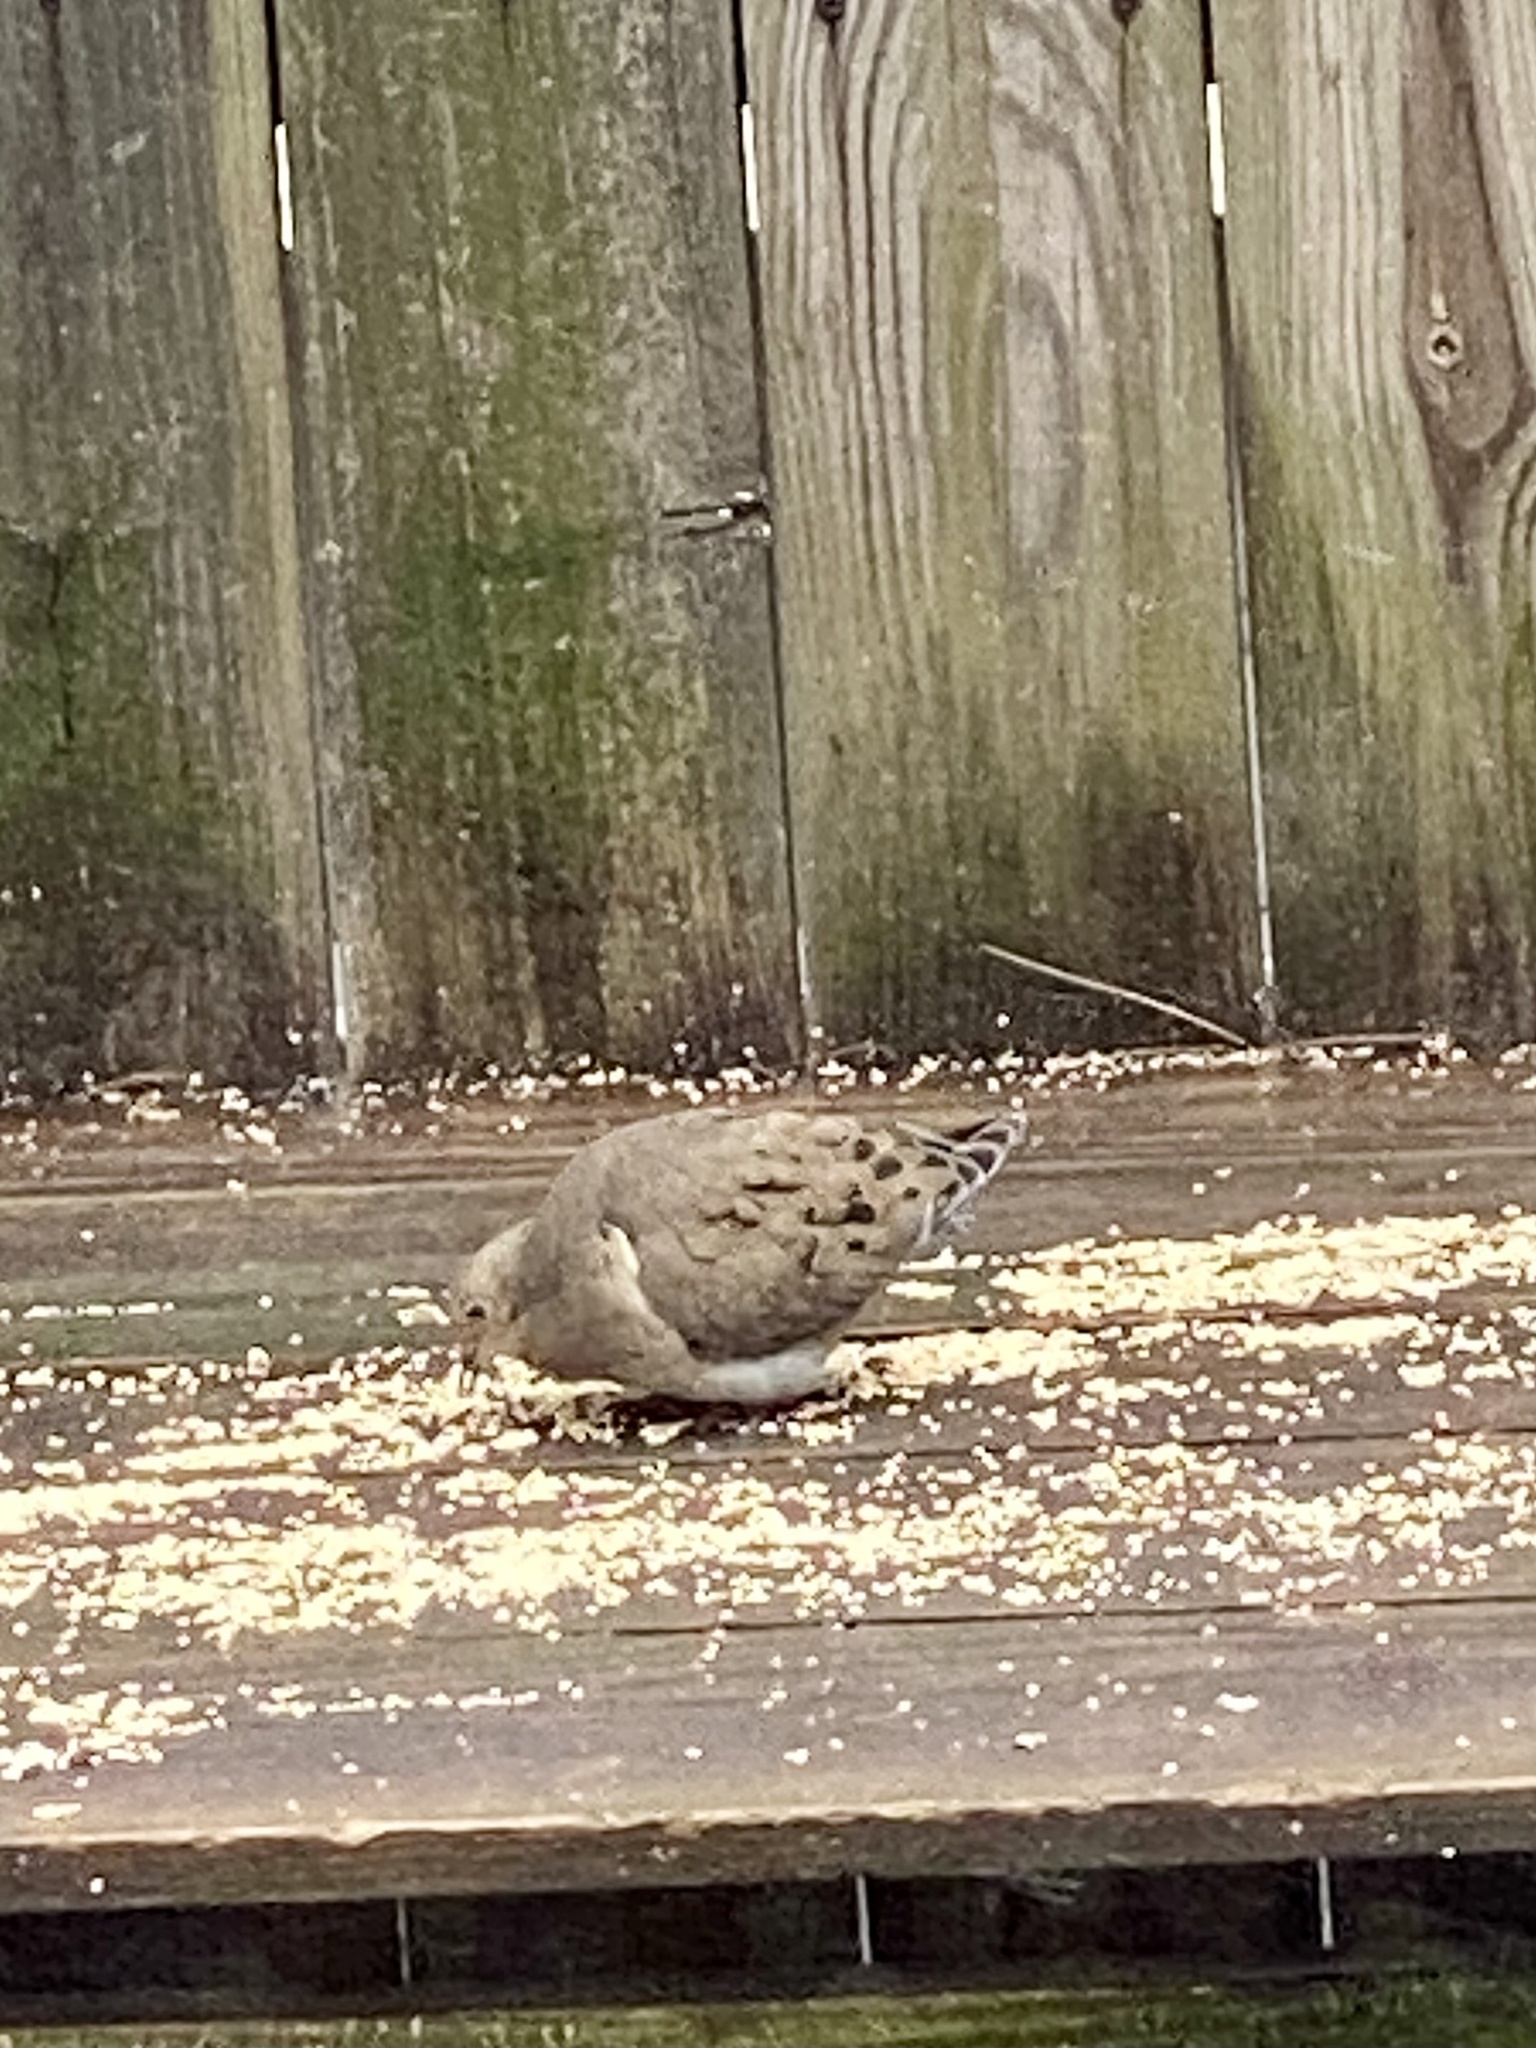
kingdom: Animalia
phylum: Chordata
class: Aves
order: Columbiformes
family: Columbidae
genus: Zenaida
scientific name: Zenaida macroura
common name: Mourning dove
